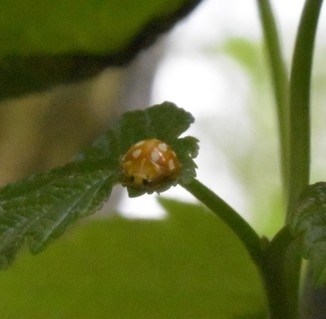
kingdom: Animalia
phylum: Arthropoda
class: Insecta
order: Coleoptera
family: Coccinellidae
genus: Halyzia
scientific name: Halyzia sedecimguttata
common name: Orange ladybird
